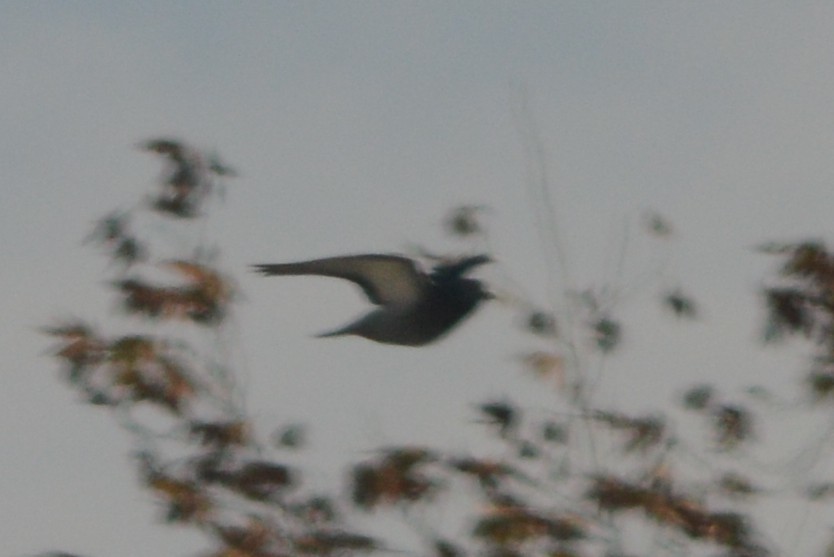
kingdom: Animalia
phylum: Chordata
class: Aves
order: Columbiformes
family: Columbidae
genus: Columba
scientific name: Columba livia
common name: Rock pigeon
